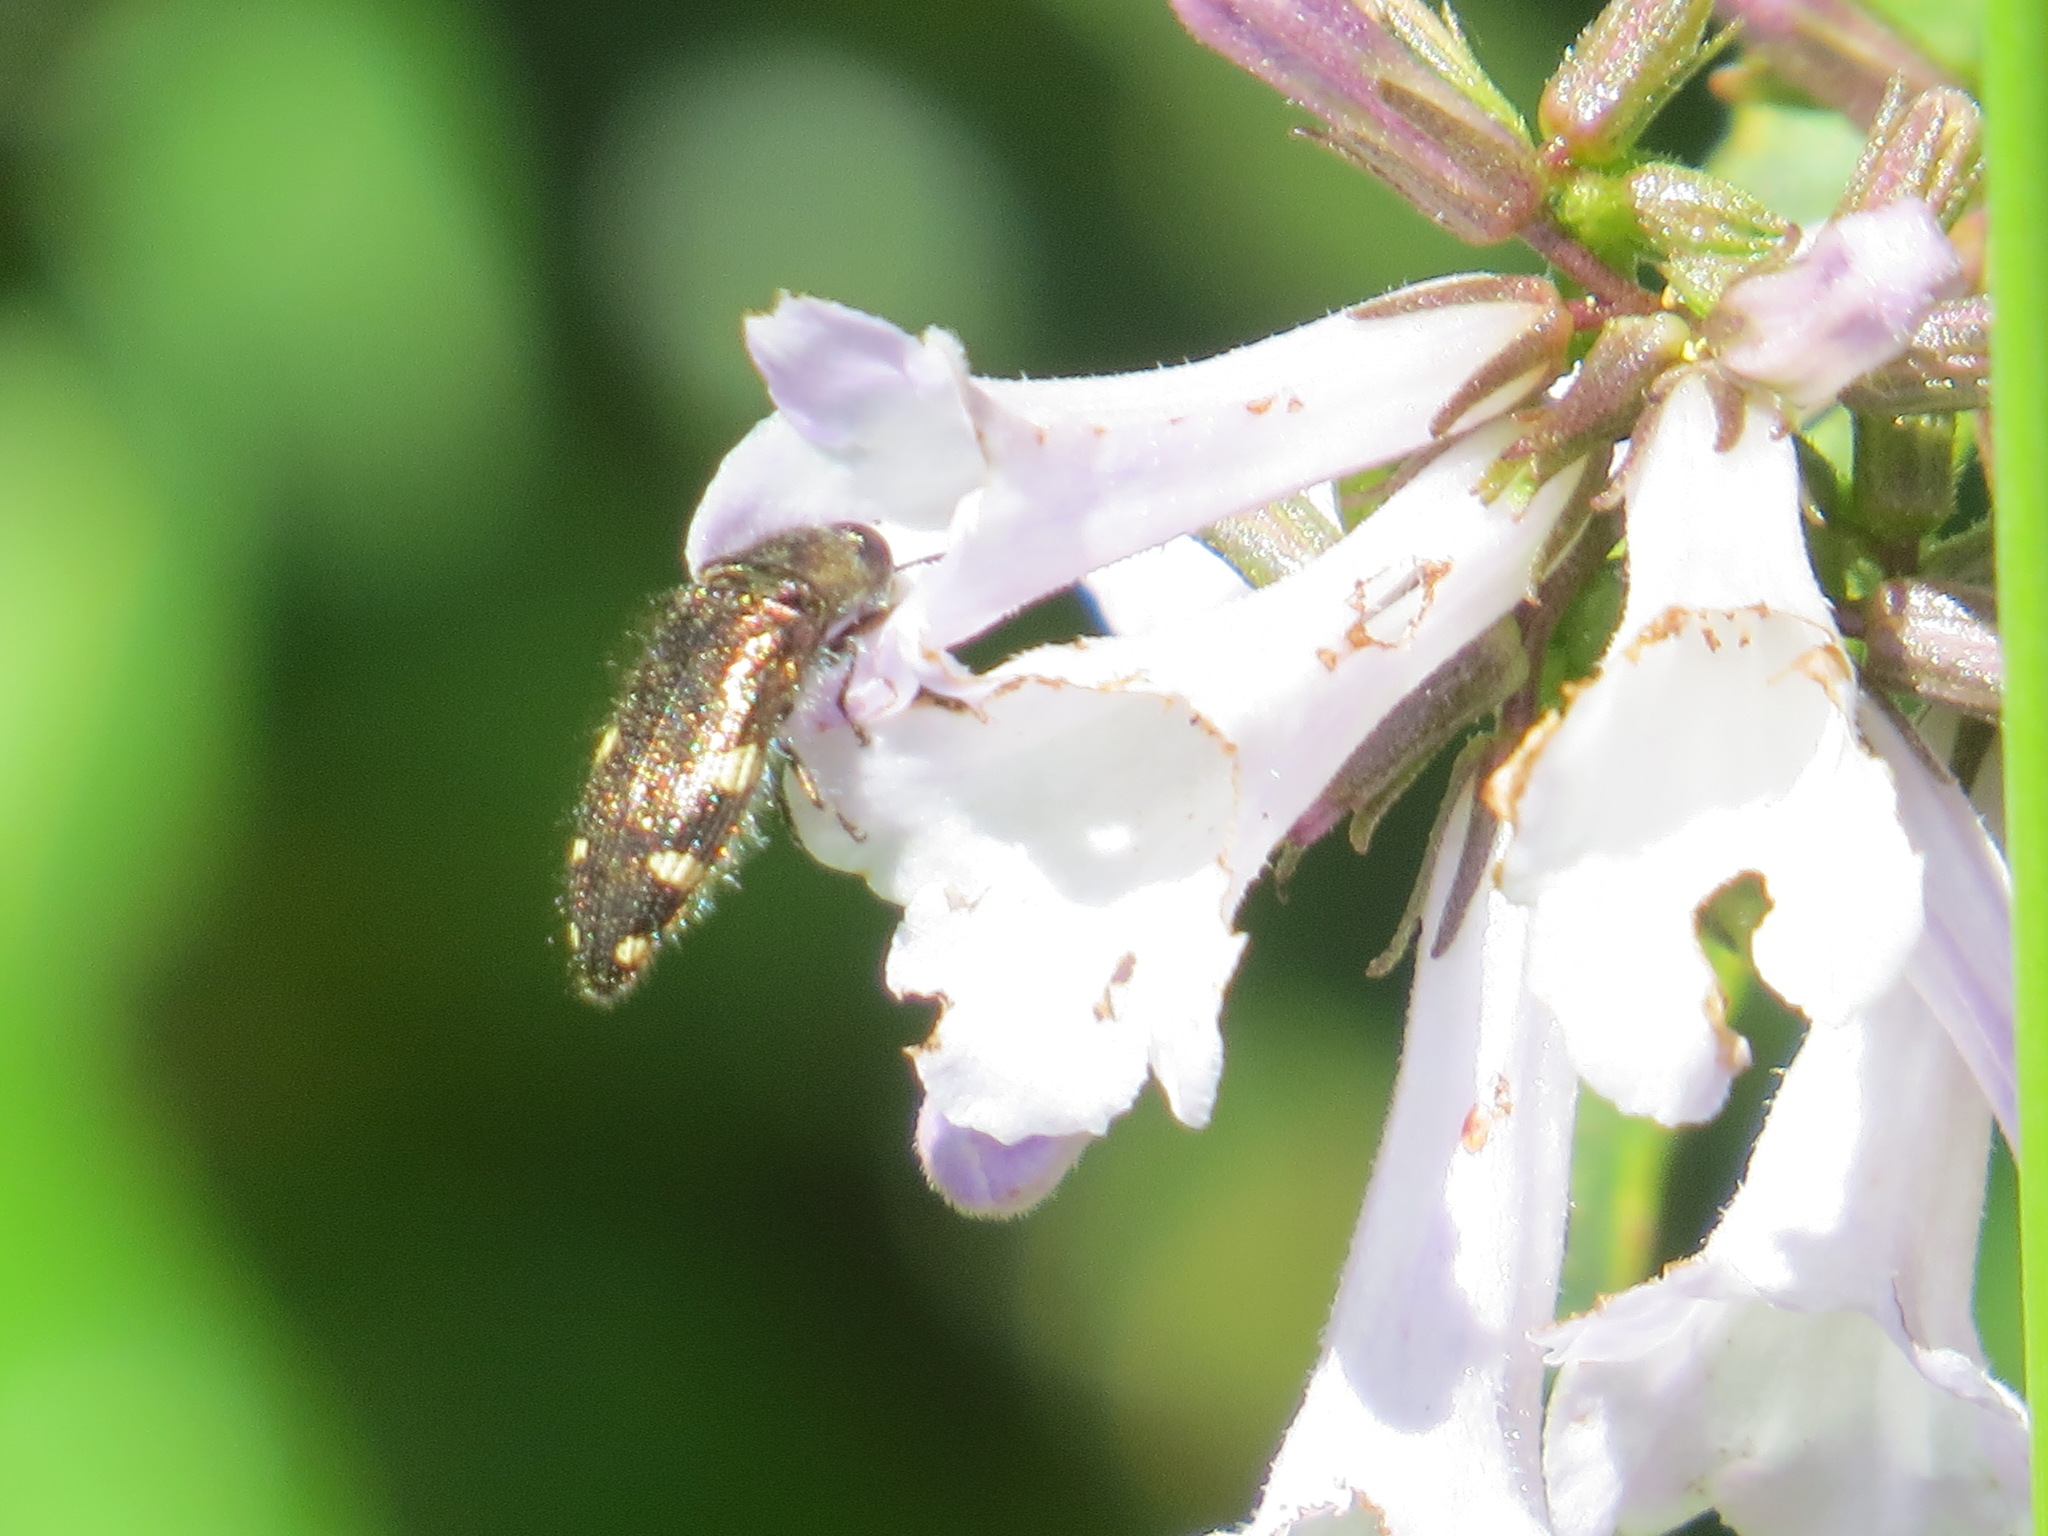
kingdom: Animalia
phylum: Arthropoda
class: Insecta
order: Coleoptera
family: Buprestidae
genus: Acmaeodera
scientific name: Acmaeodera prorsa
